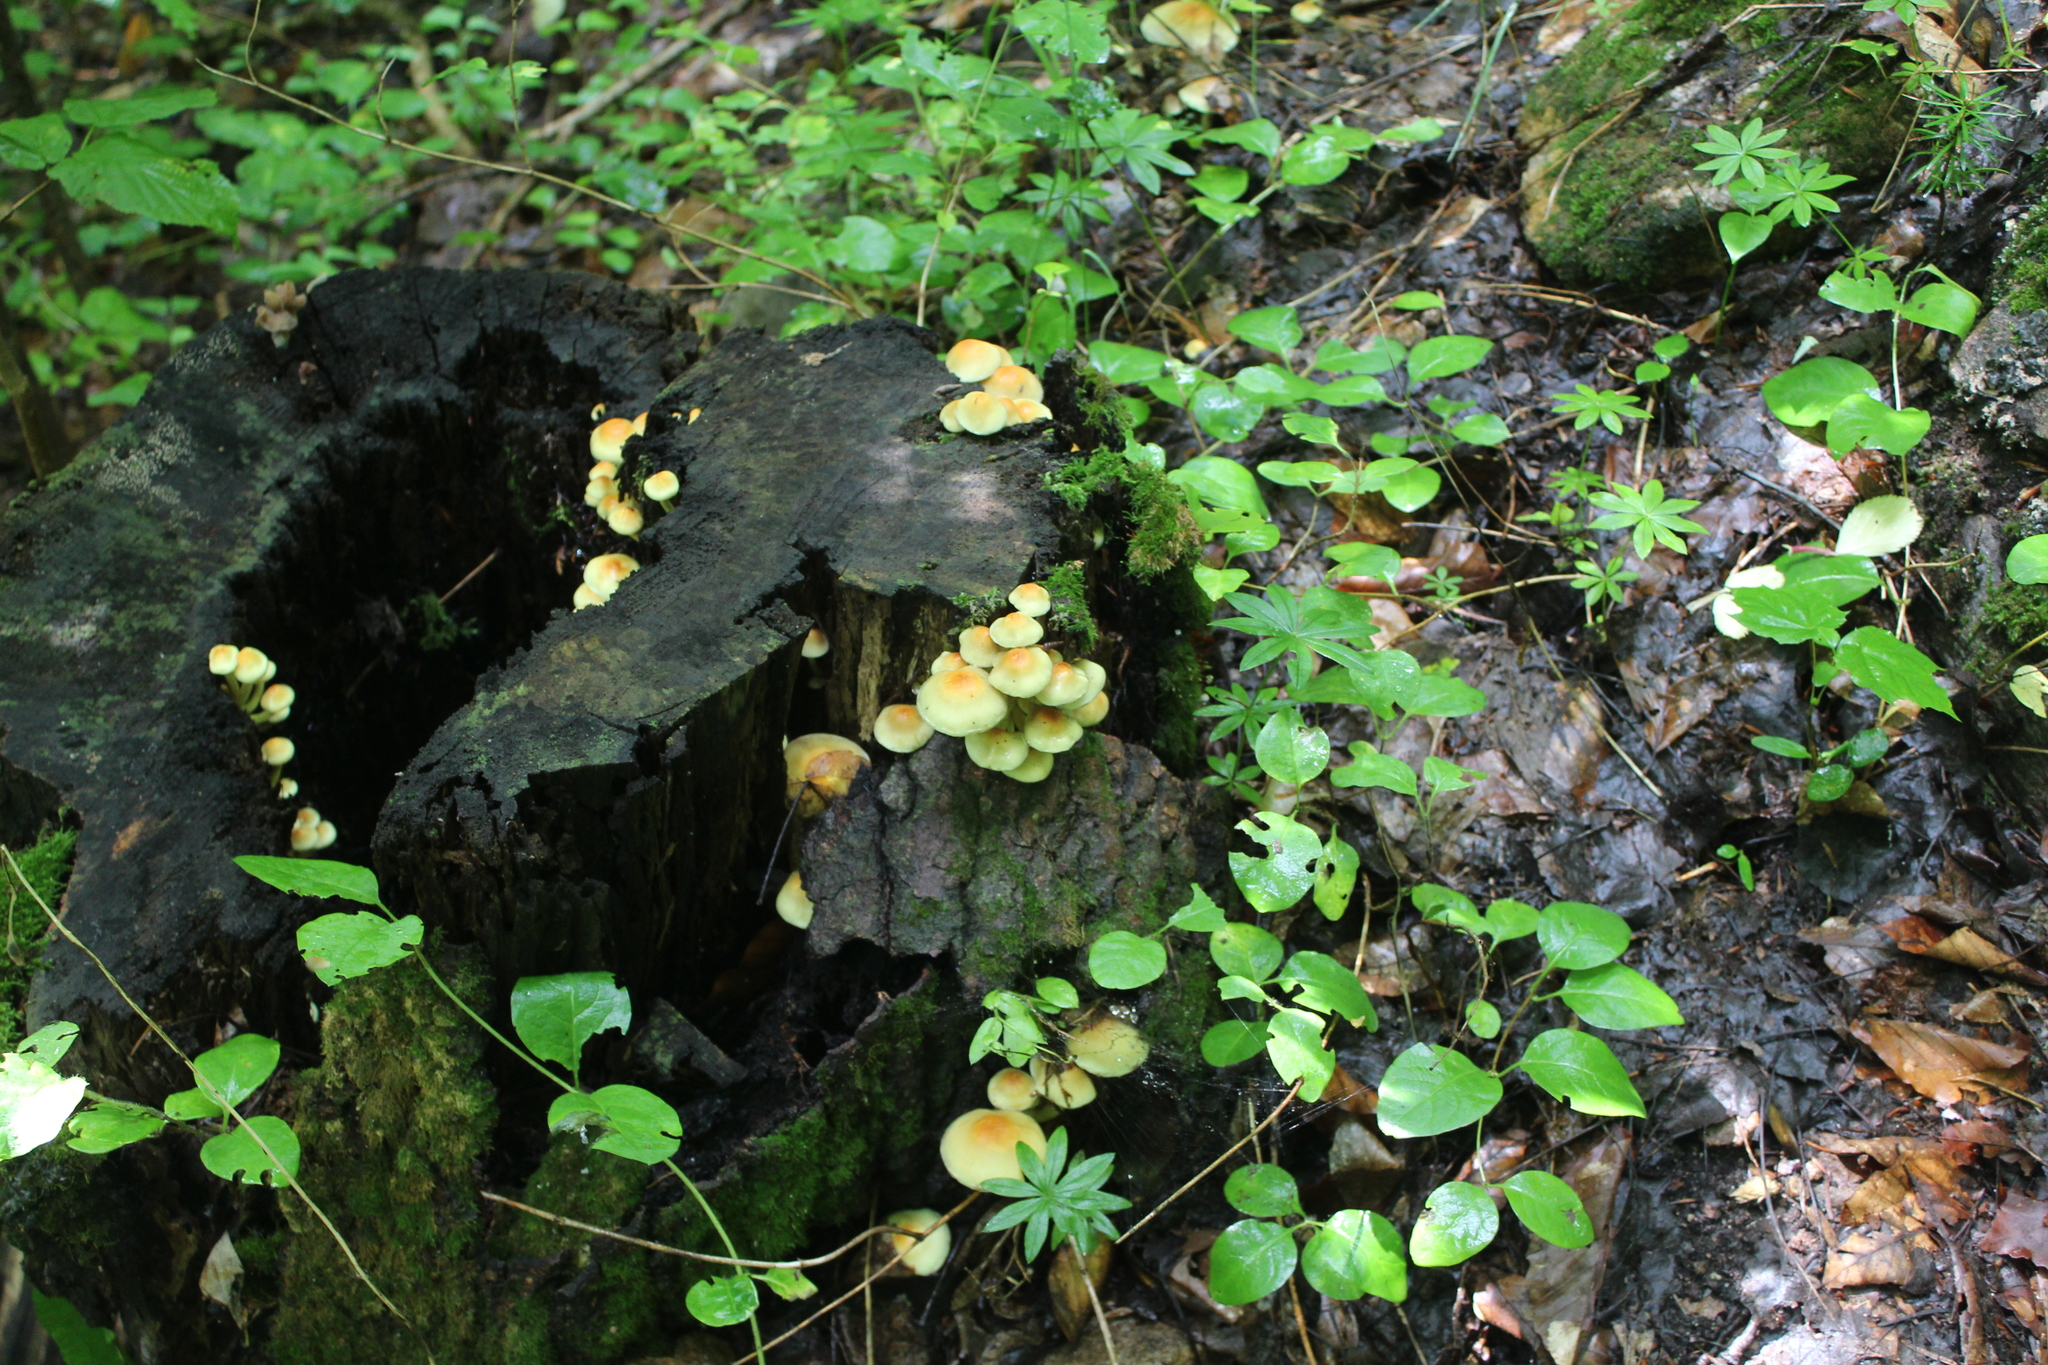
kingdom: Fungi
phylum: Basidiomycota
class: Agaricomycetes
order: Agaricales
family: Strophariaceae
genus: Hypholoma
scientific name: Hypholoma fasciculare
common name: Sulphur tuft
